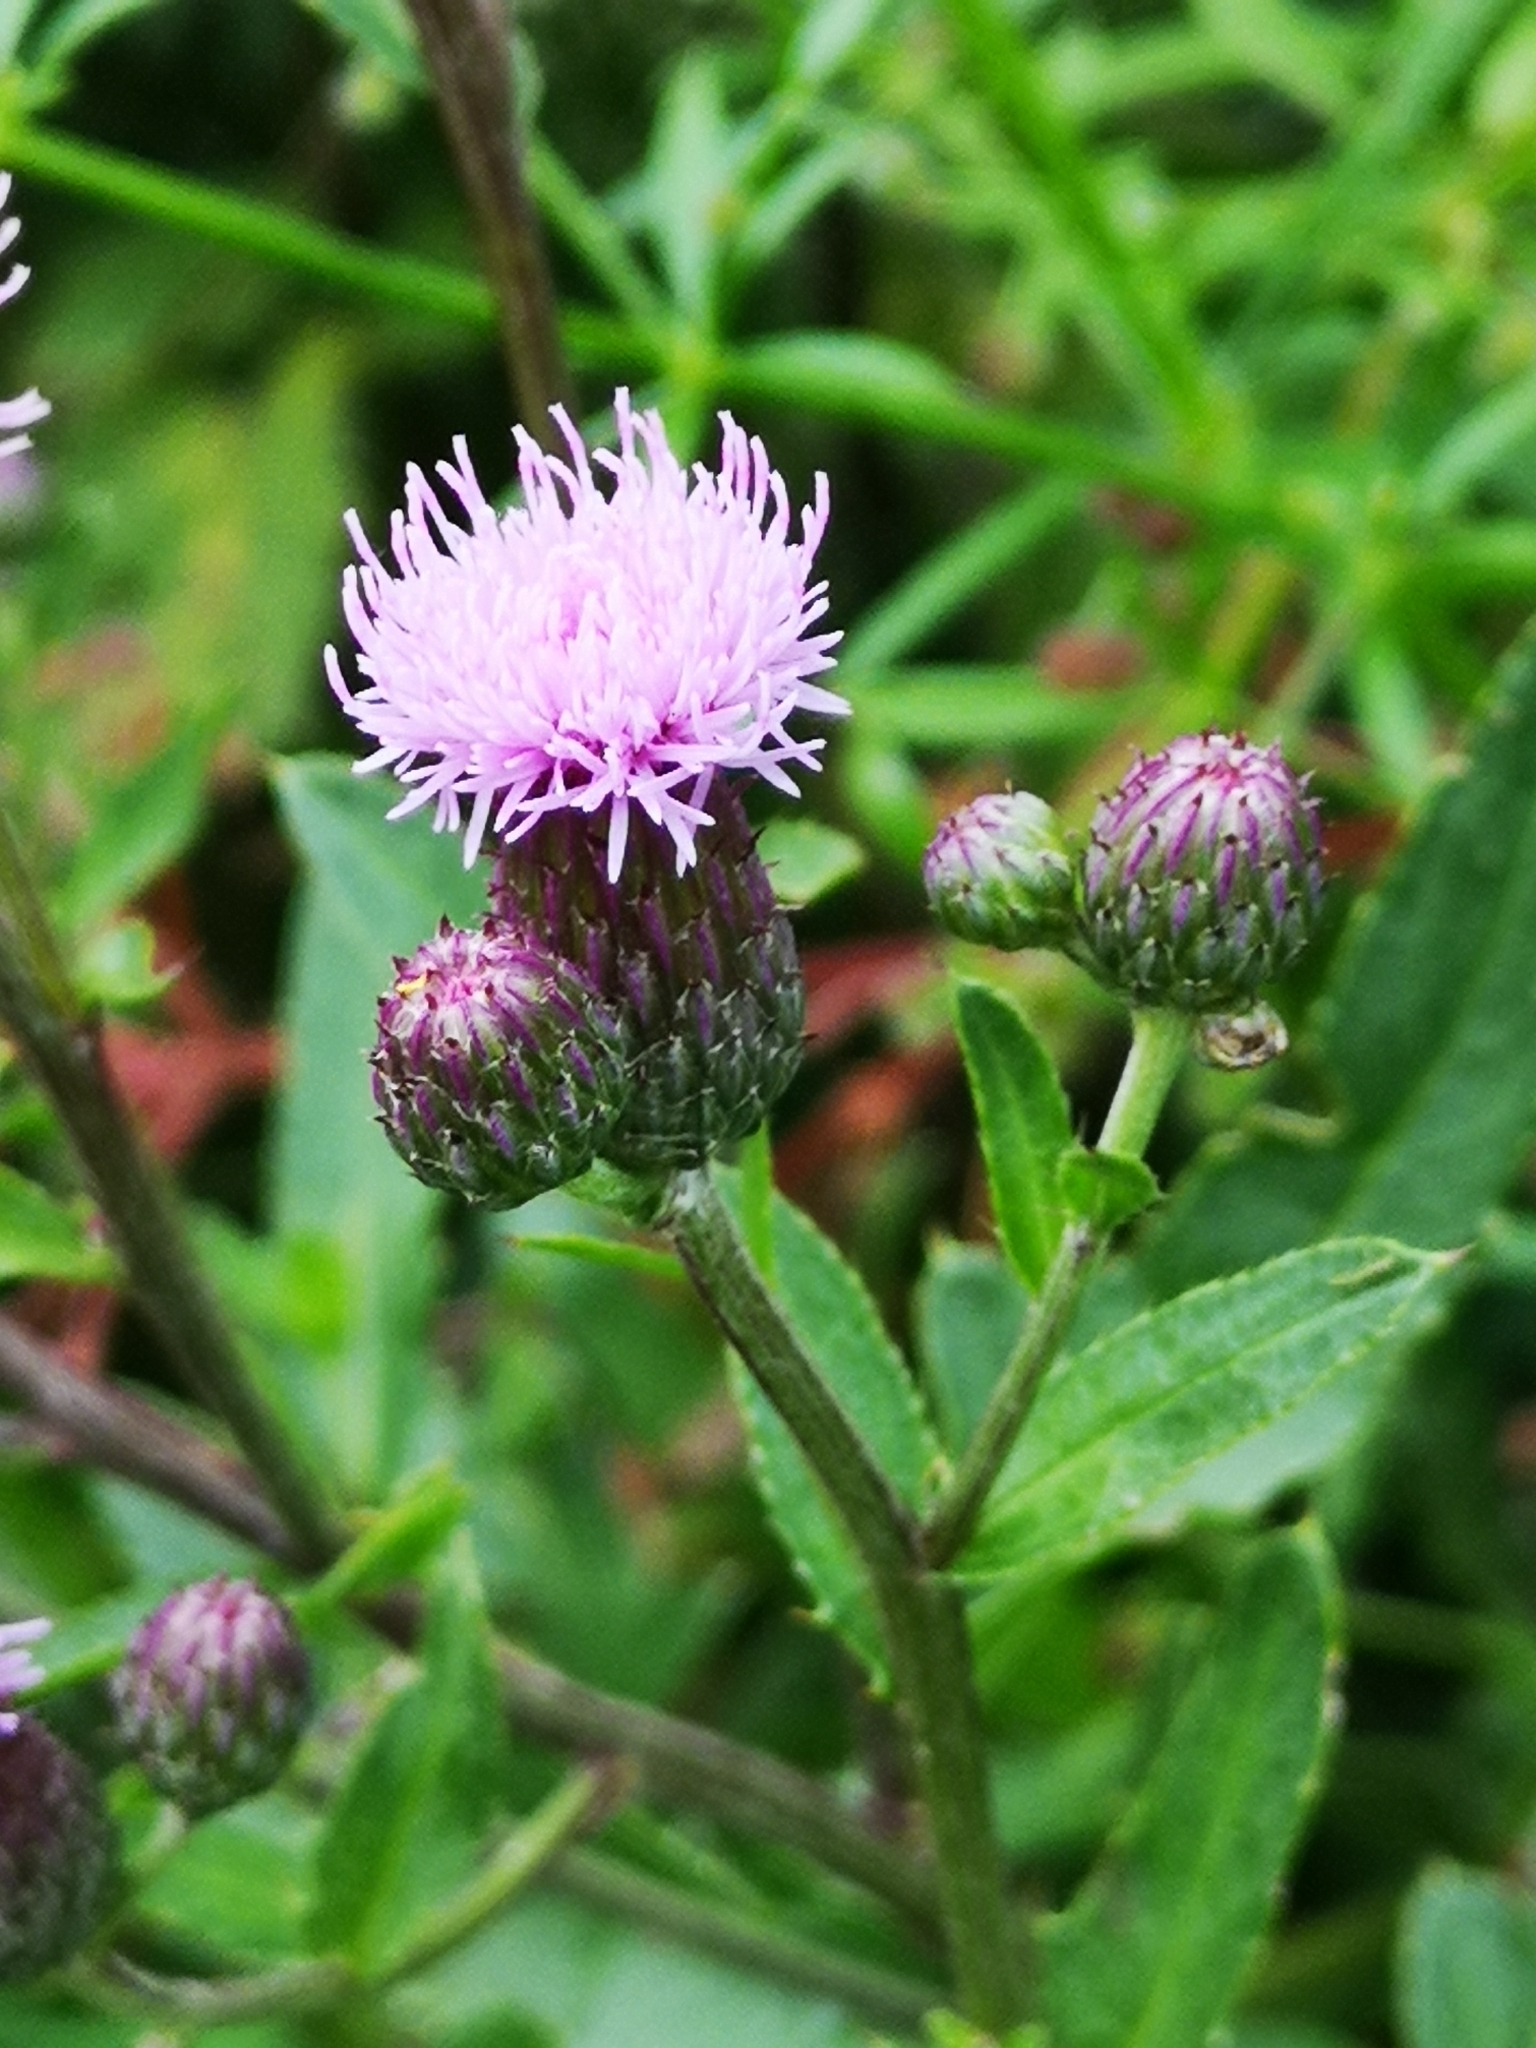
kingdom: Plantae
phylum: Tracheophyta
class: Magnoliopsida
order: Asterales
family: Asteraceae
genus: Cirsium
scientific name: Cirsium arvense
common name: Creeping thistle
